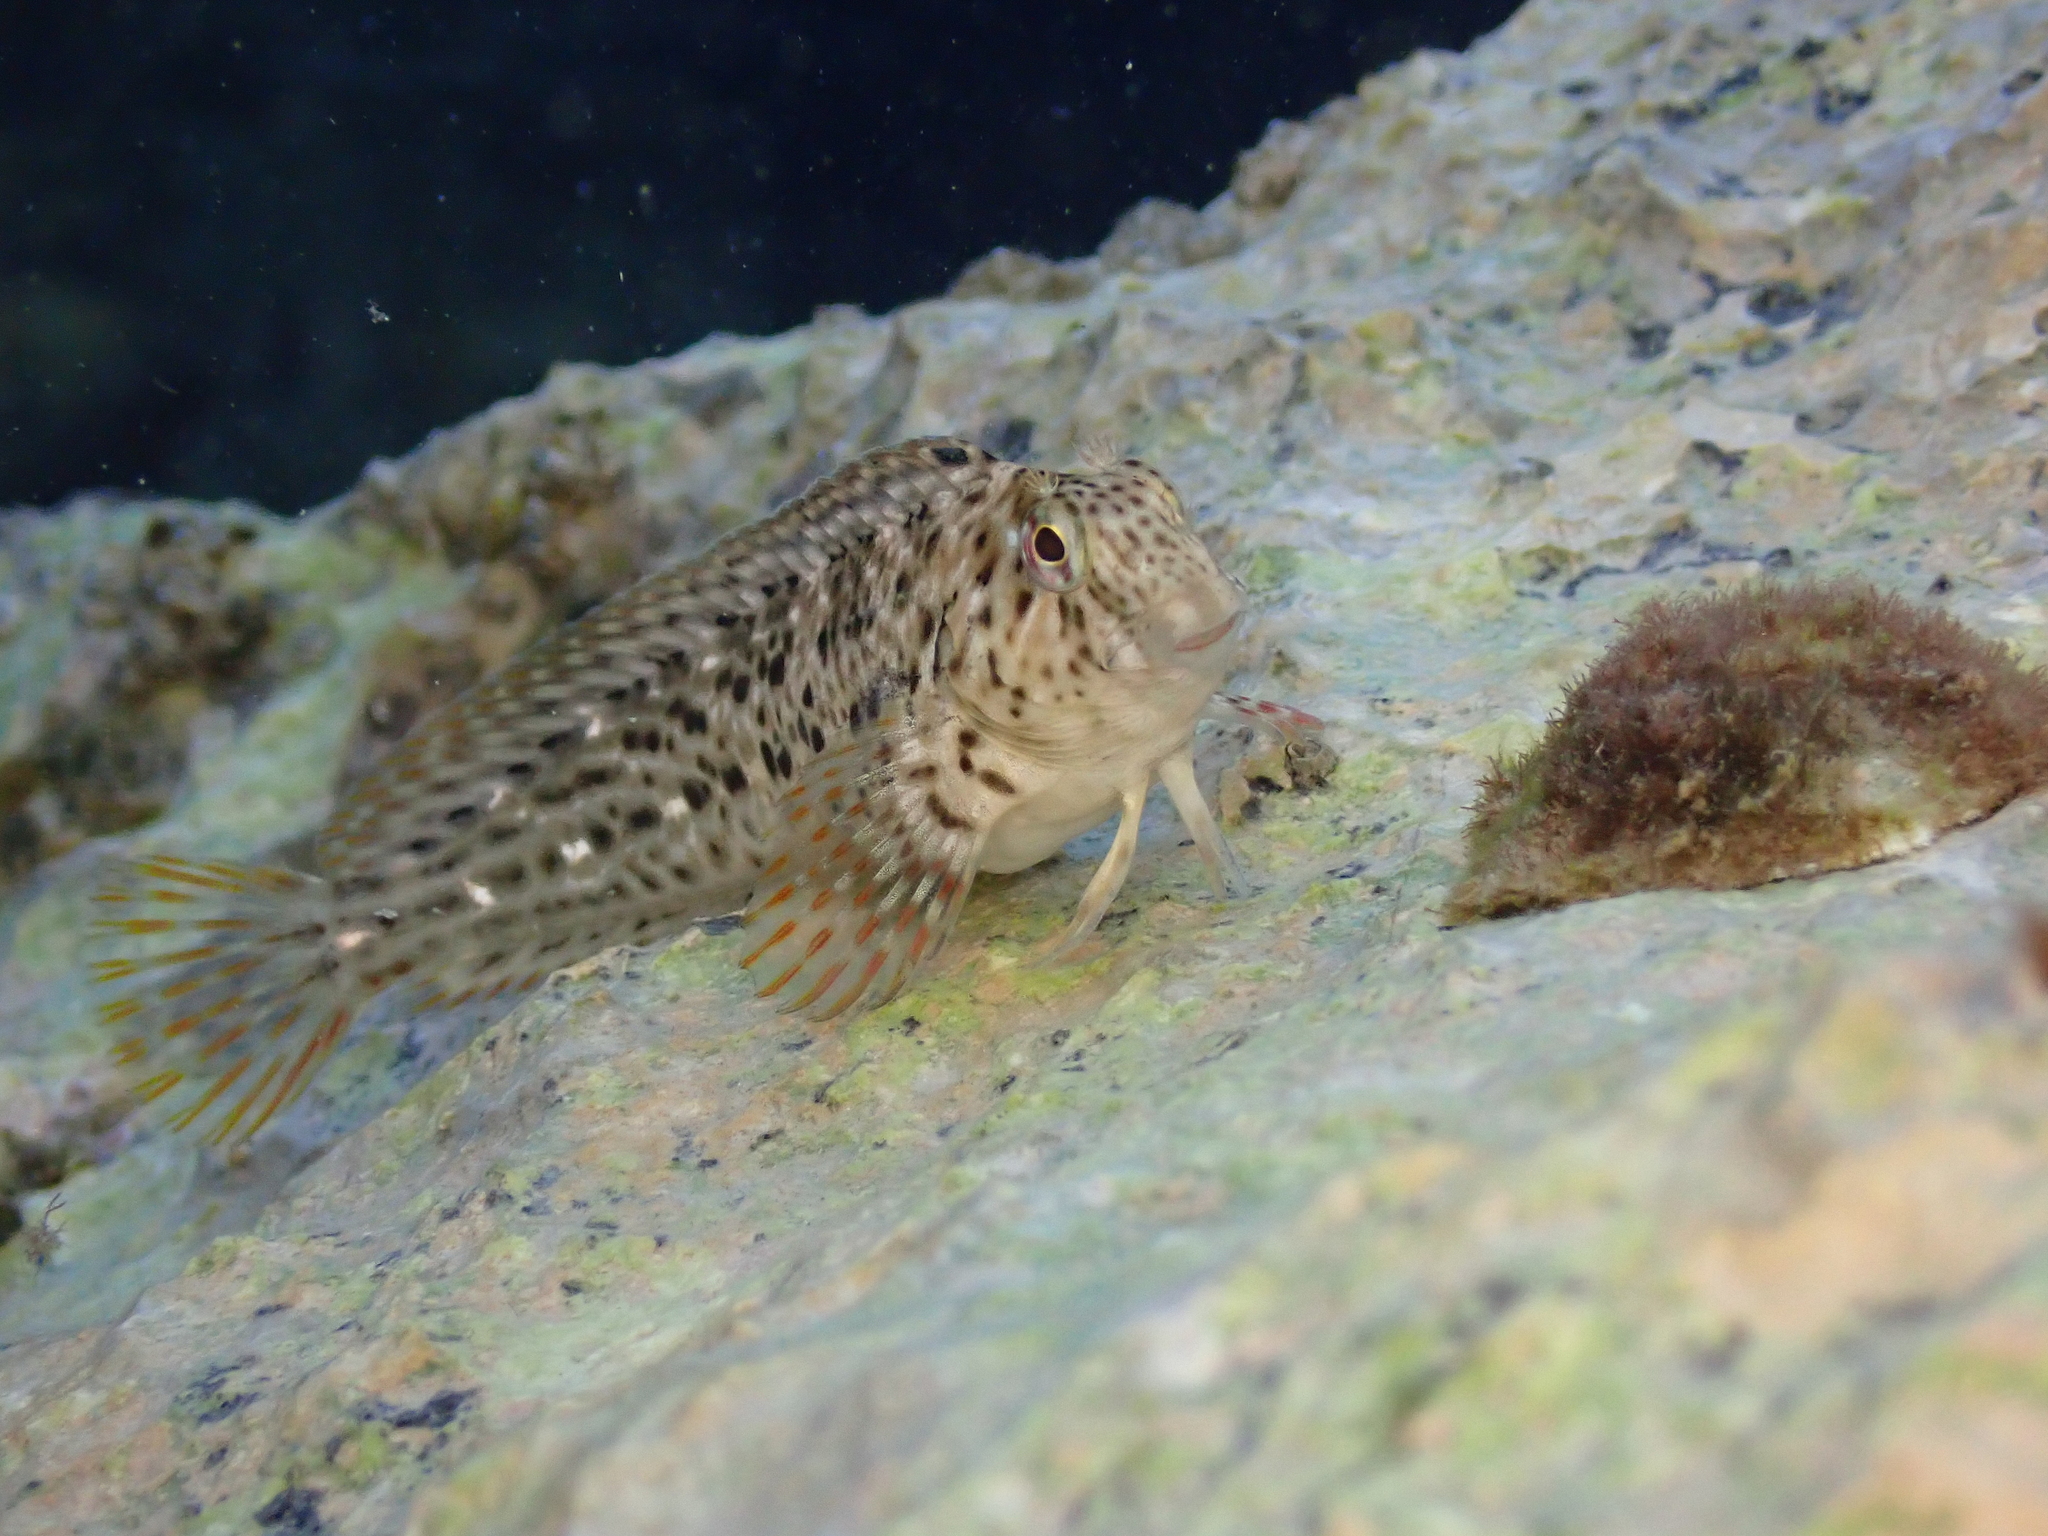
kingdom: Animalia
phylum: Chordata
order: Perciformes
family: Blenniidae
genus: Parablennius
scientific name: Parablennius sanguinolentus
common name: Black sea blenny
